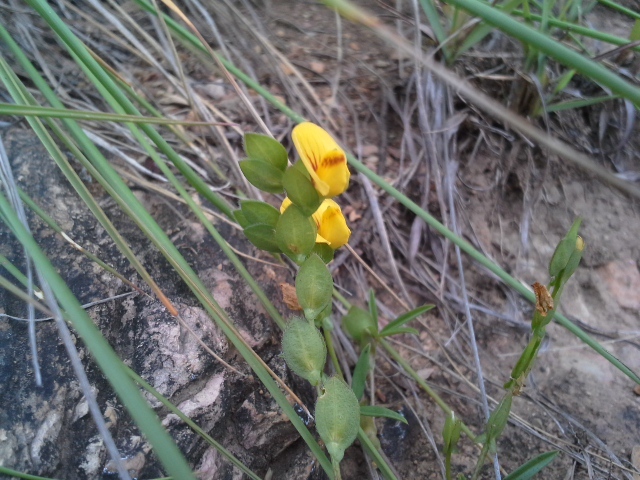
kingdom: Plantae
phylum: Tracheophyta
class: Magnoliopsida
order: Fabales
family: Fabaceae
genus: Zornia
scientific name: Zornia capensis
